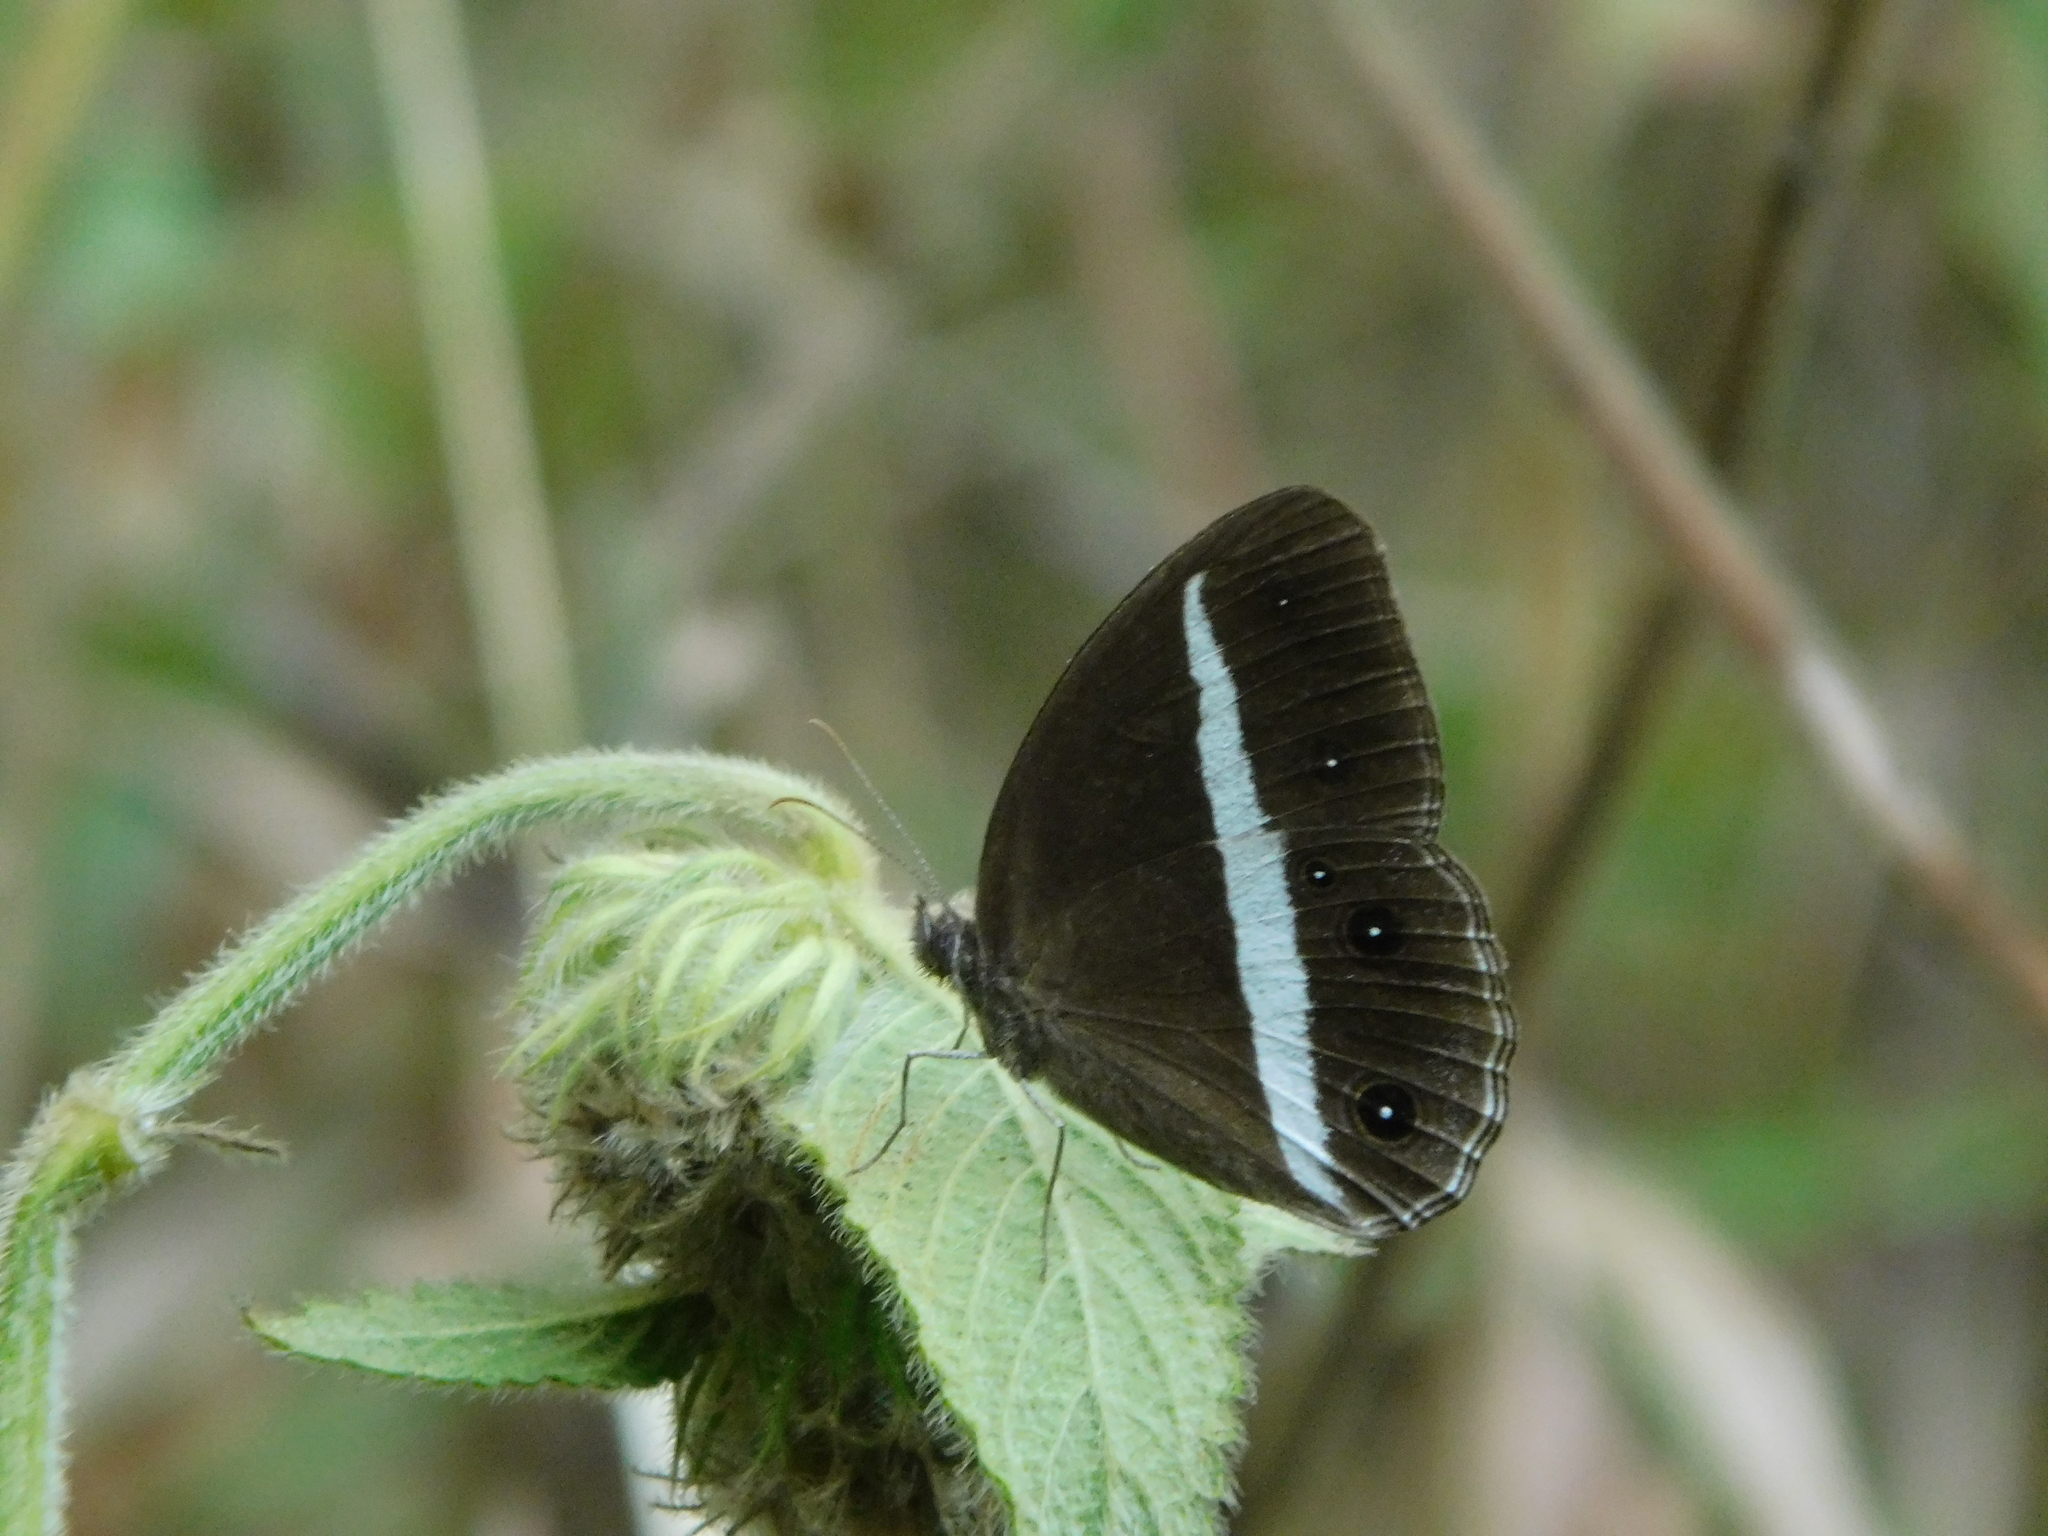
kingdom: Animalia
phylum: Arthropoda
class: Insecta
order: Lepidoptera
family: Nymphalidae
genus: Orsotriaena
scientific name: Orsotriaena medus
